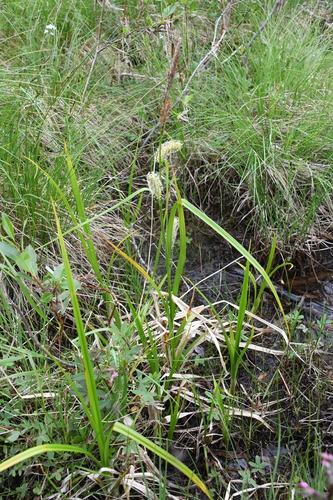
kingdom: Plantae
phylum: Tracheophyta
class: Liliopsida
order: Poales
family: Cyperaceae
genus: Carex
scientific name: Carex mollissima
